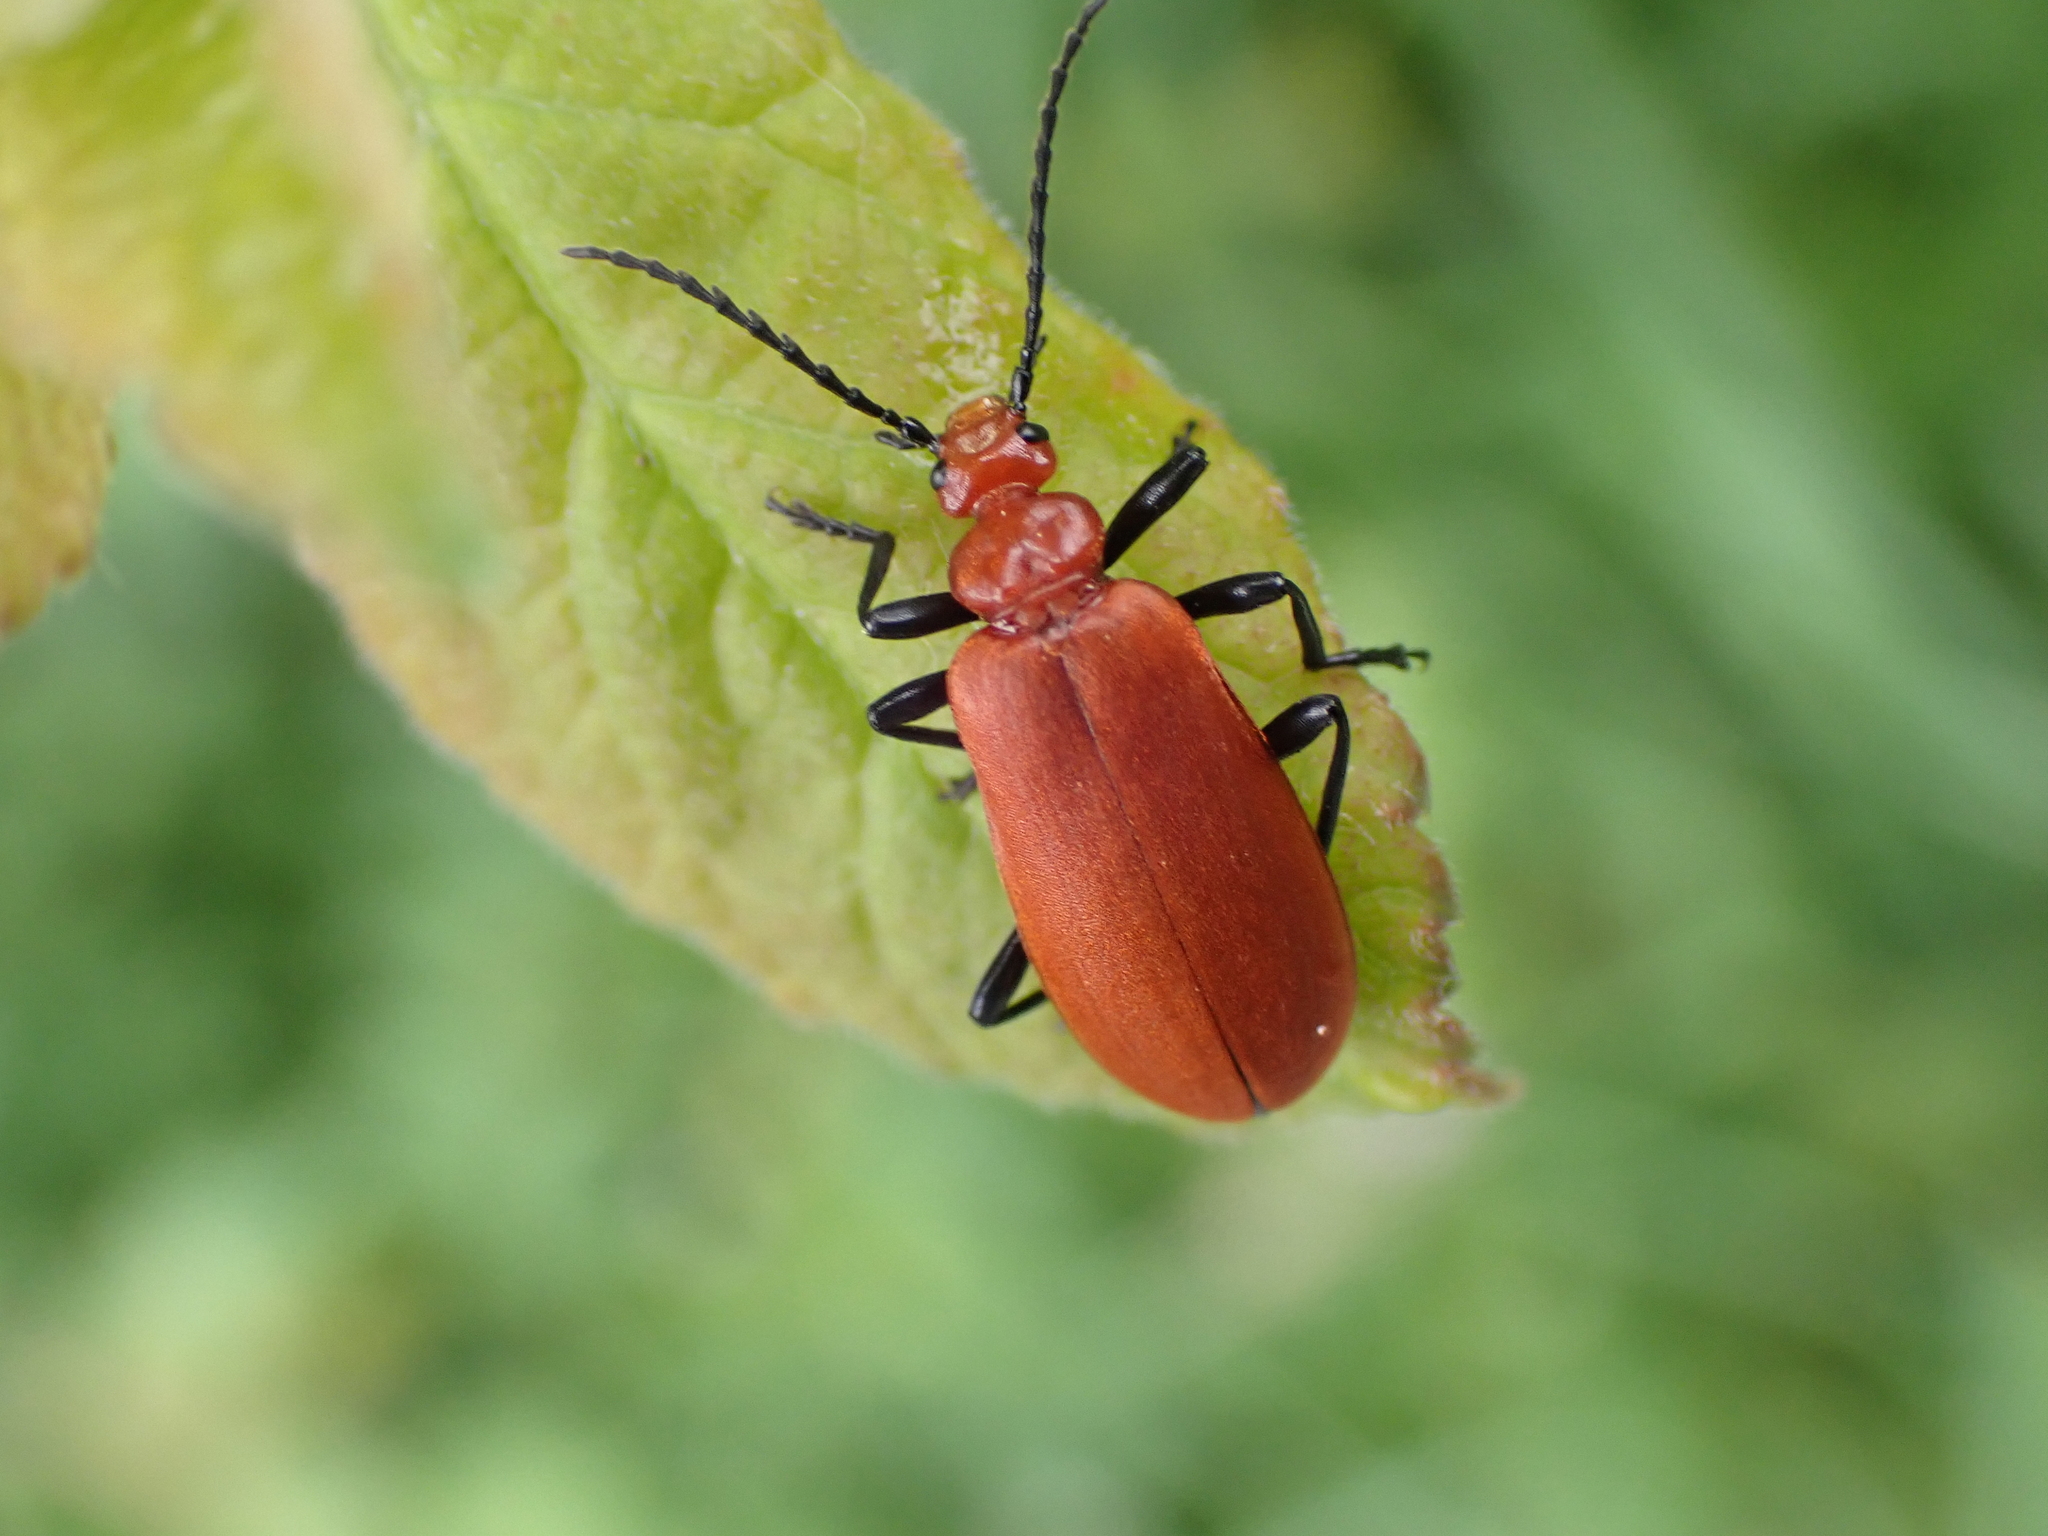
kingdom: Animalia
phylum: Arthropoda
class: Insecta
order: Coleoptera
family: Pyrochroidae
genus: Pyrochroa
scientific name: Pyrochroa serraticornis
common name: Red-headed cardinal beetle
